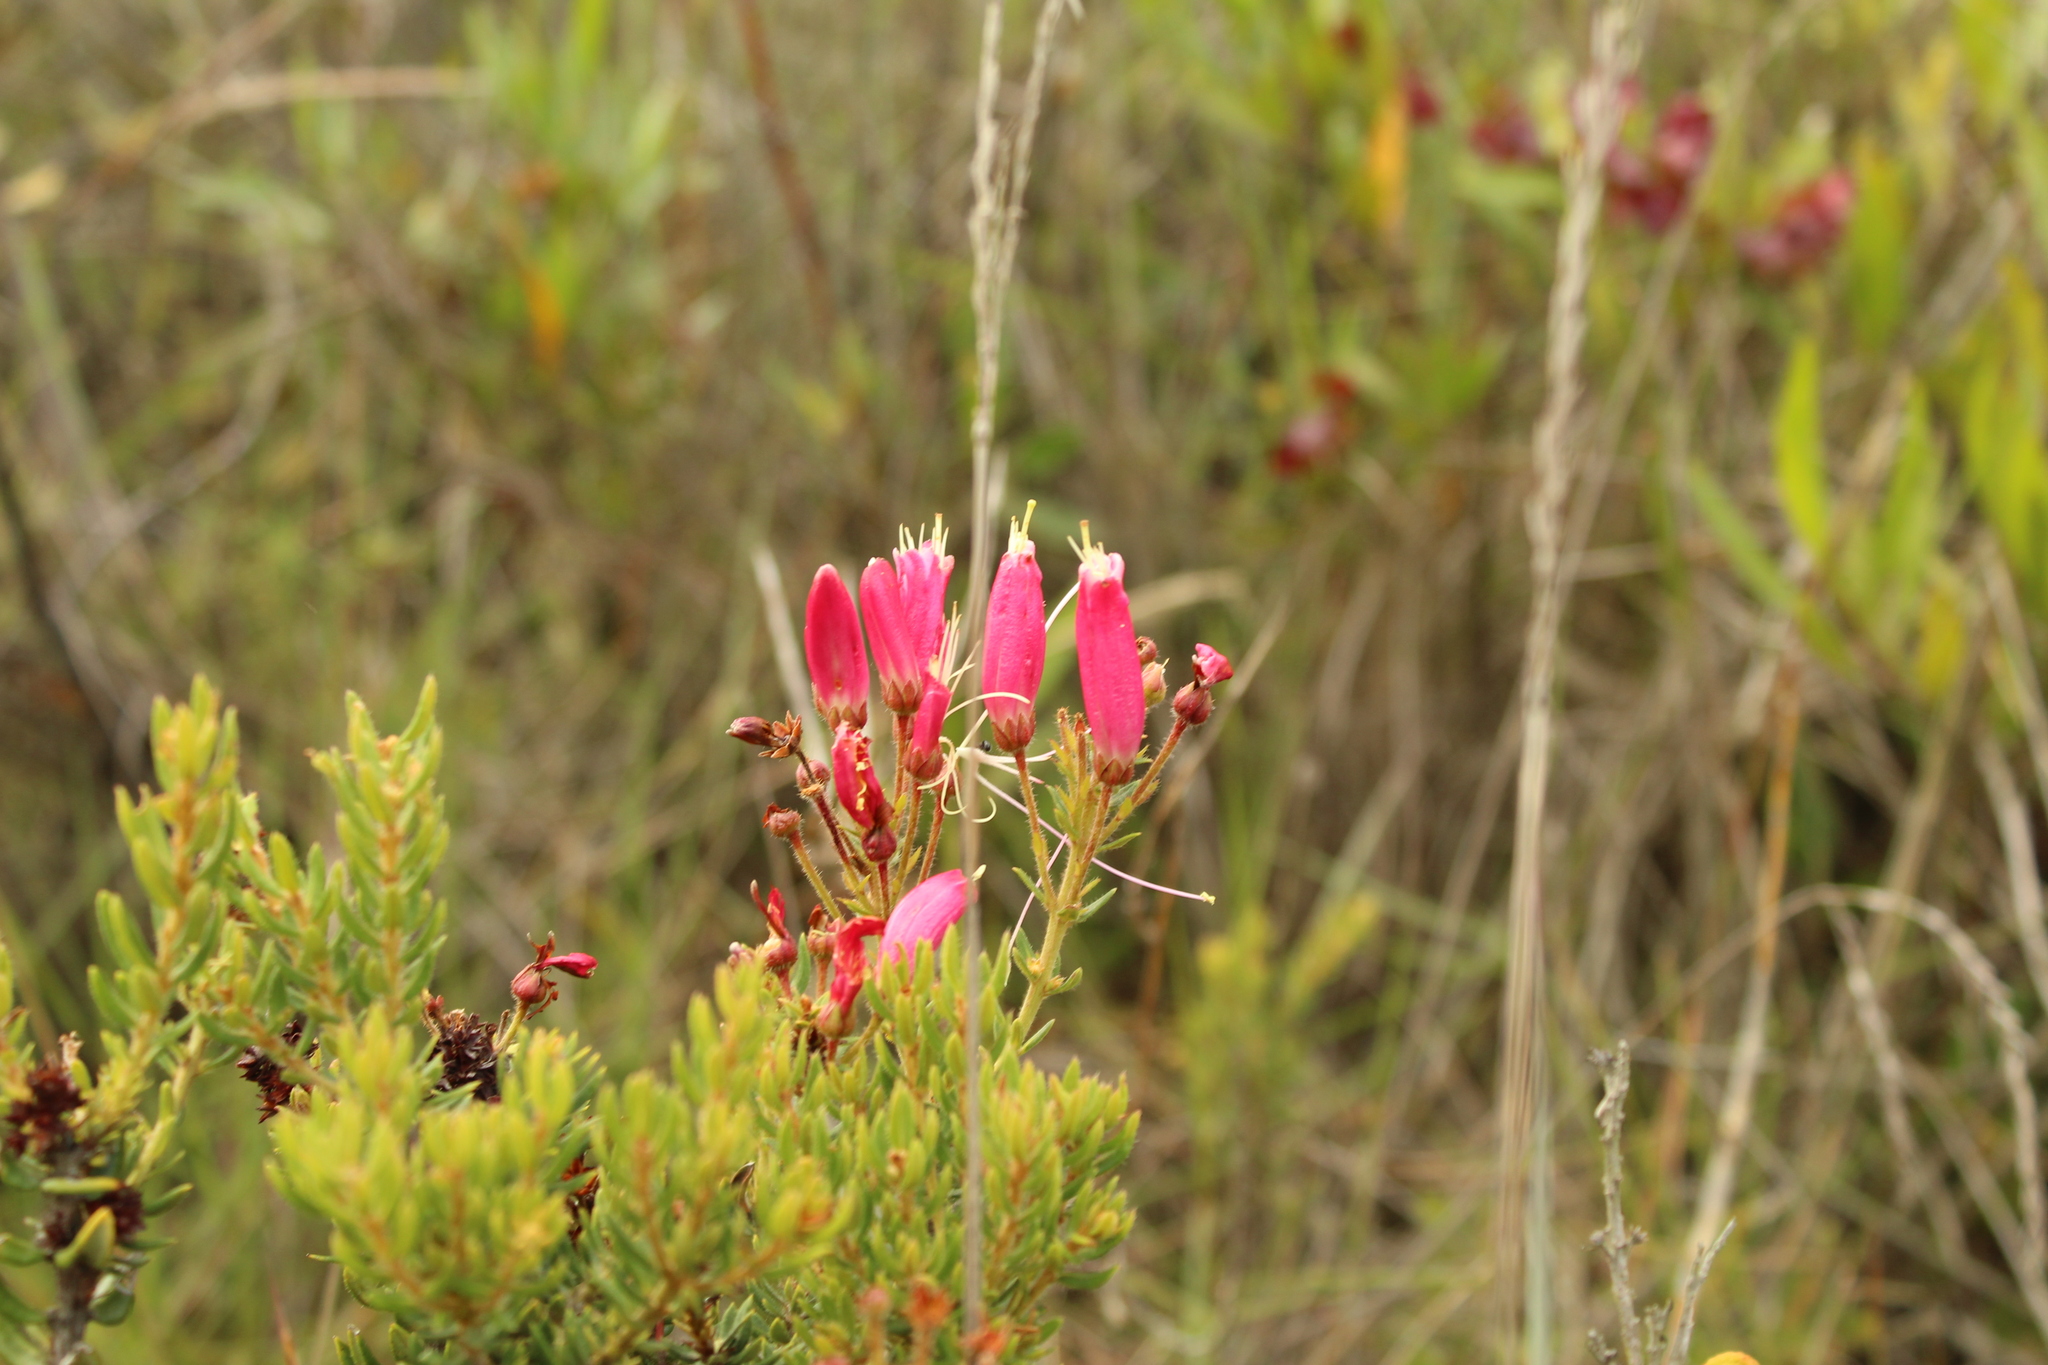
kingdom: Plantae
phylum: Tracheophyta
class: Magnoliopsida
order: Ericales
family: Ericaceae
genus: Bejaria
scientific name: Bejaria resinosa
